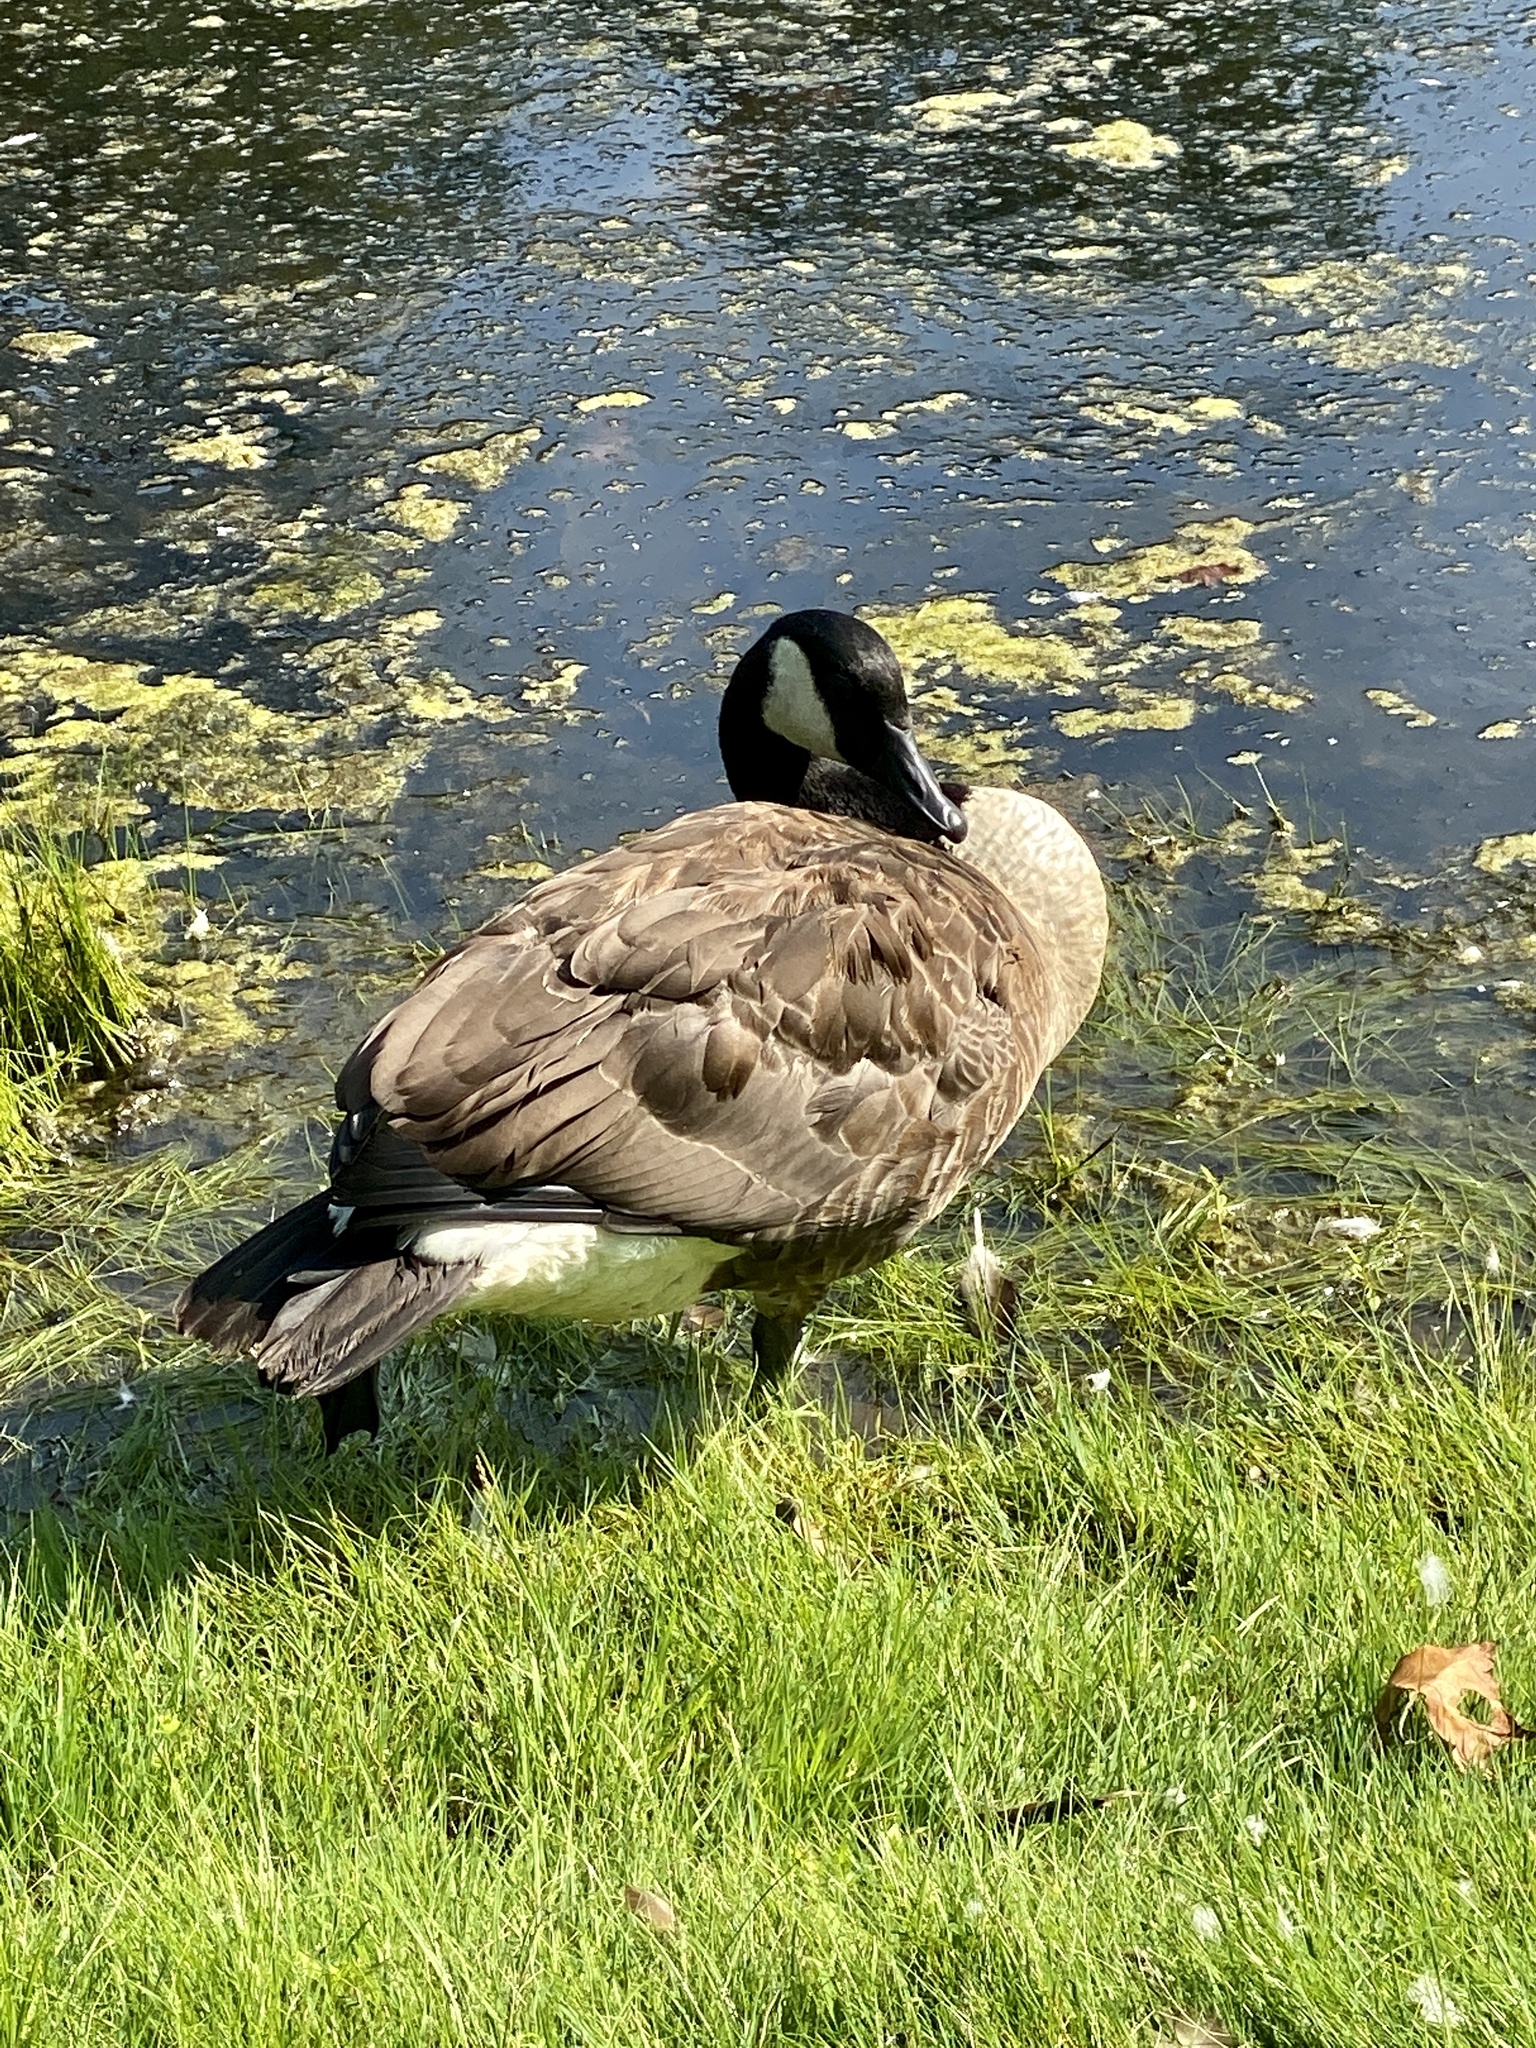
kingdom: Animalia
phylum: Chordata
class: Aves
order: Anseriformes
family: Anatidae
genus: Branta
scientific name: Branta canadensis
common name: Canada goose
